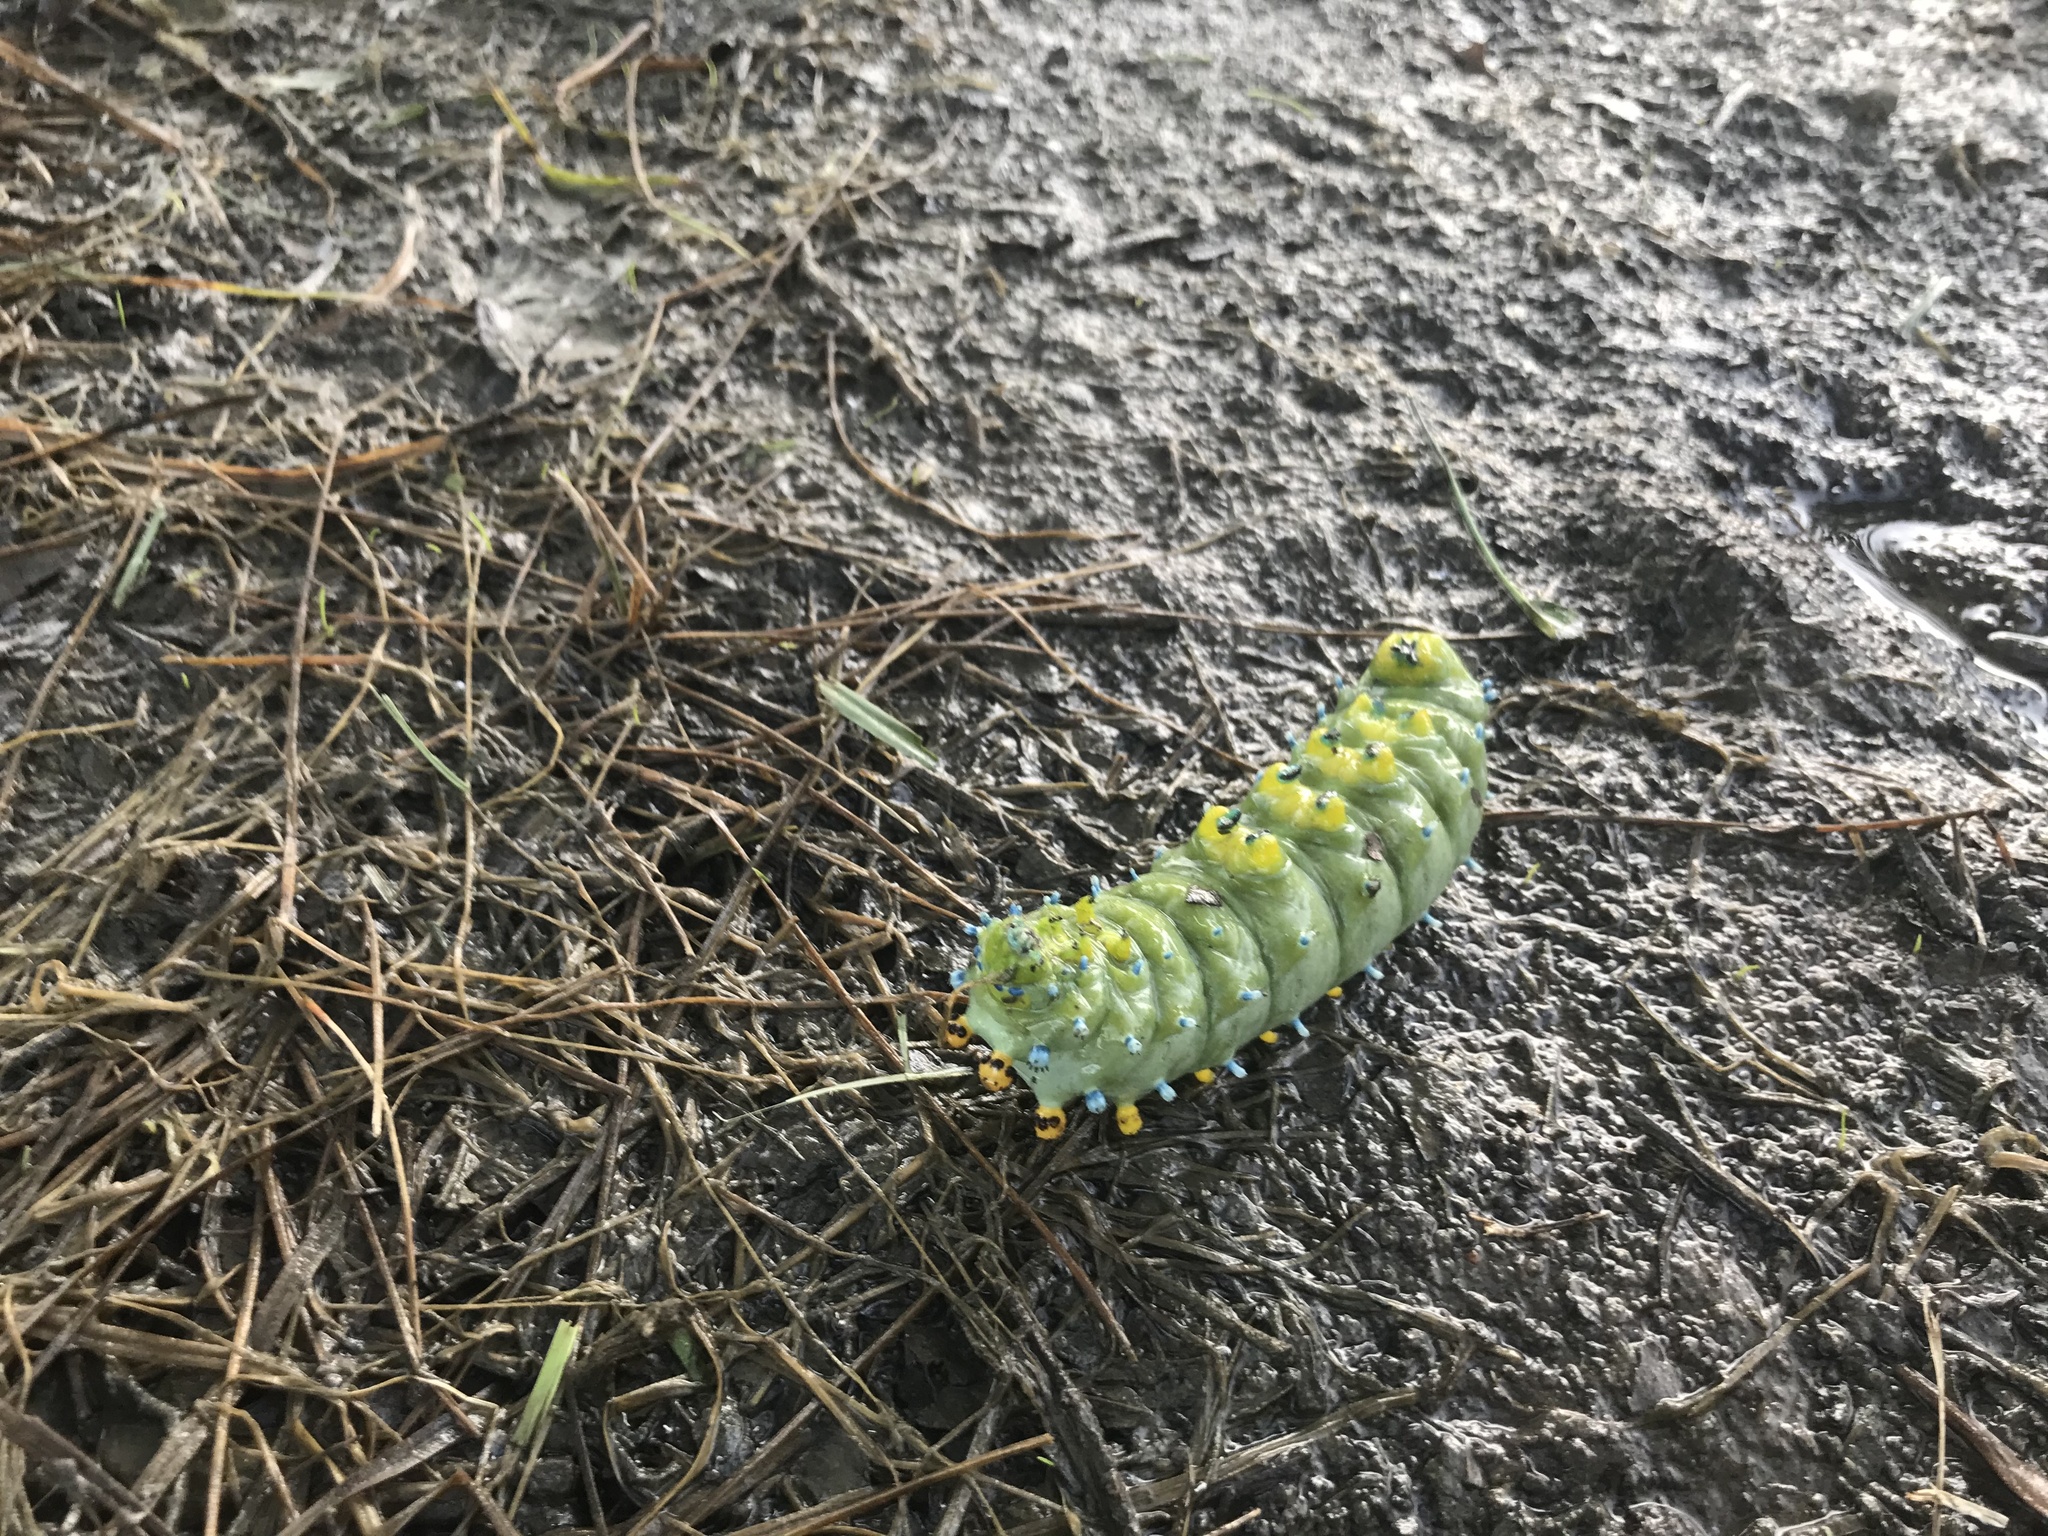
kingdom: Animalia
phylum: Arthropoda
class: Insecta
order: Lepidoptera
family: Saturniidae
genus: Hyalophora
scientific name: Hyalophora cecropia
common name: Cecropia silkmoth
